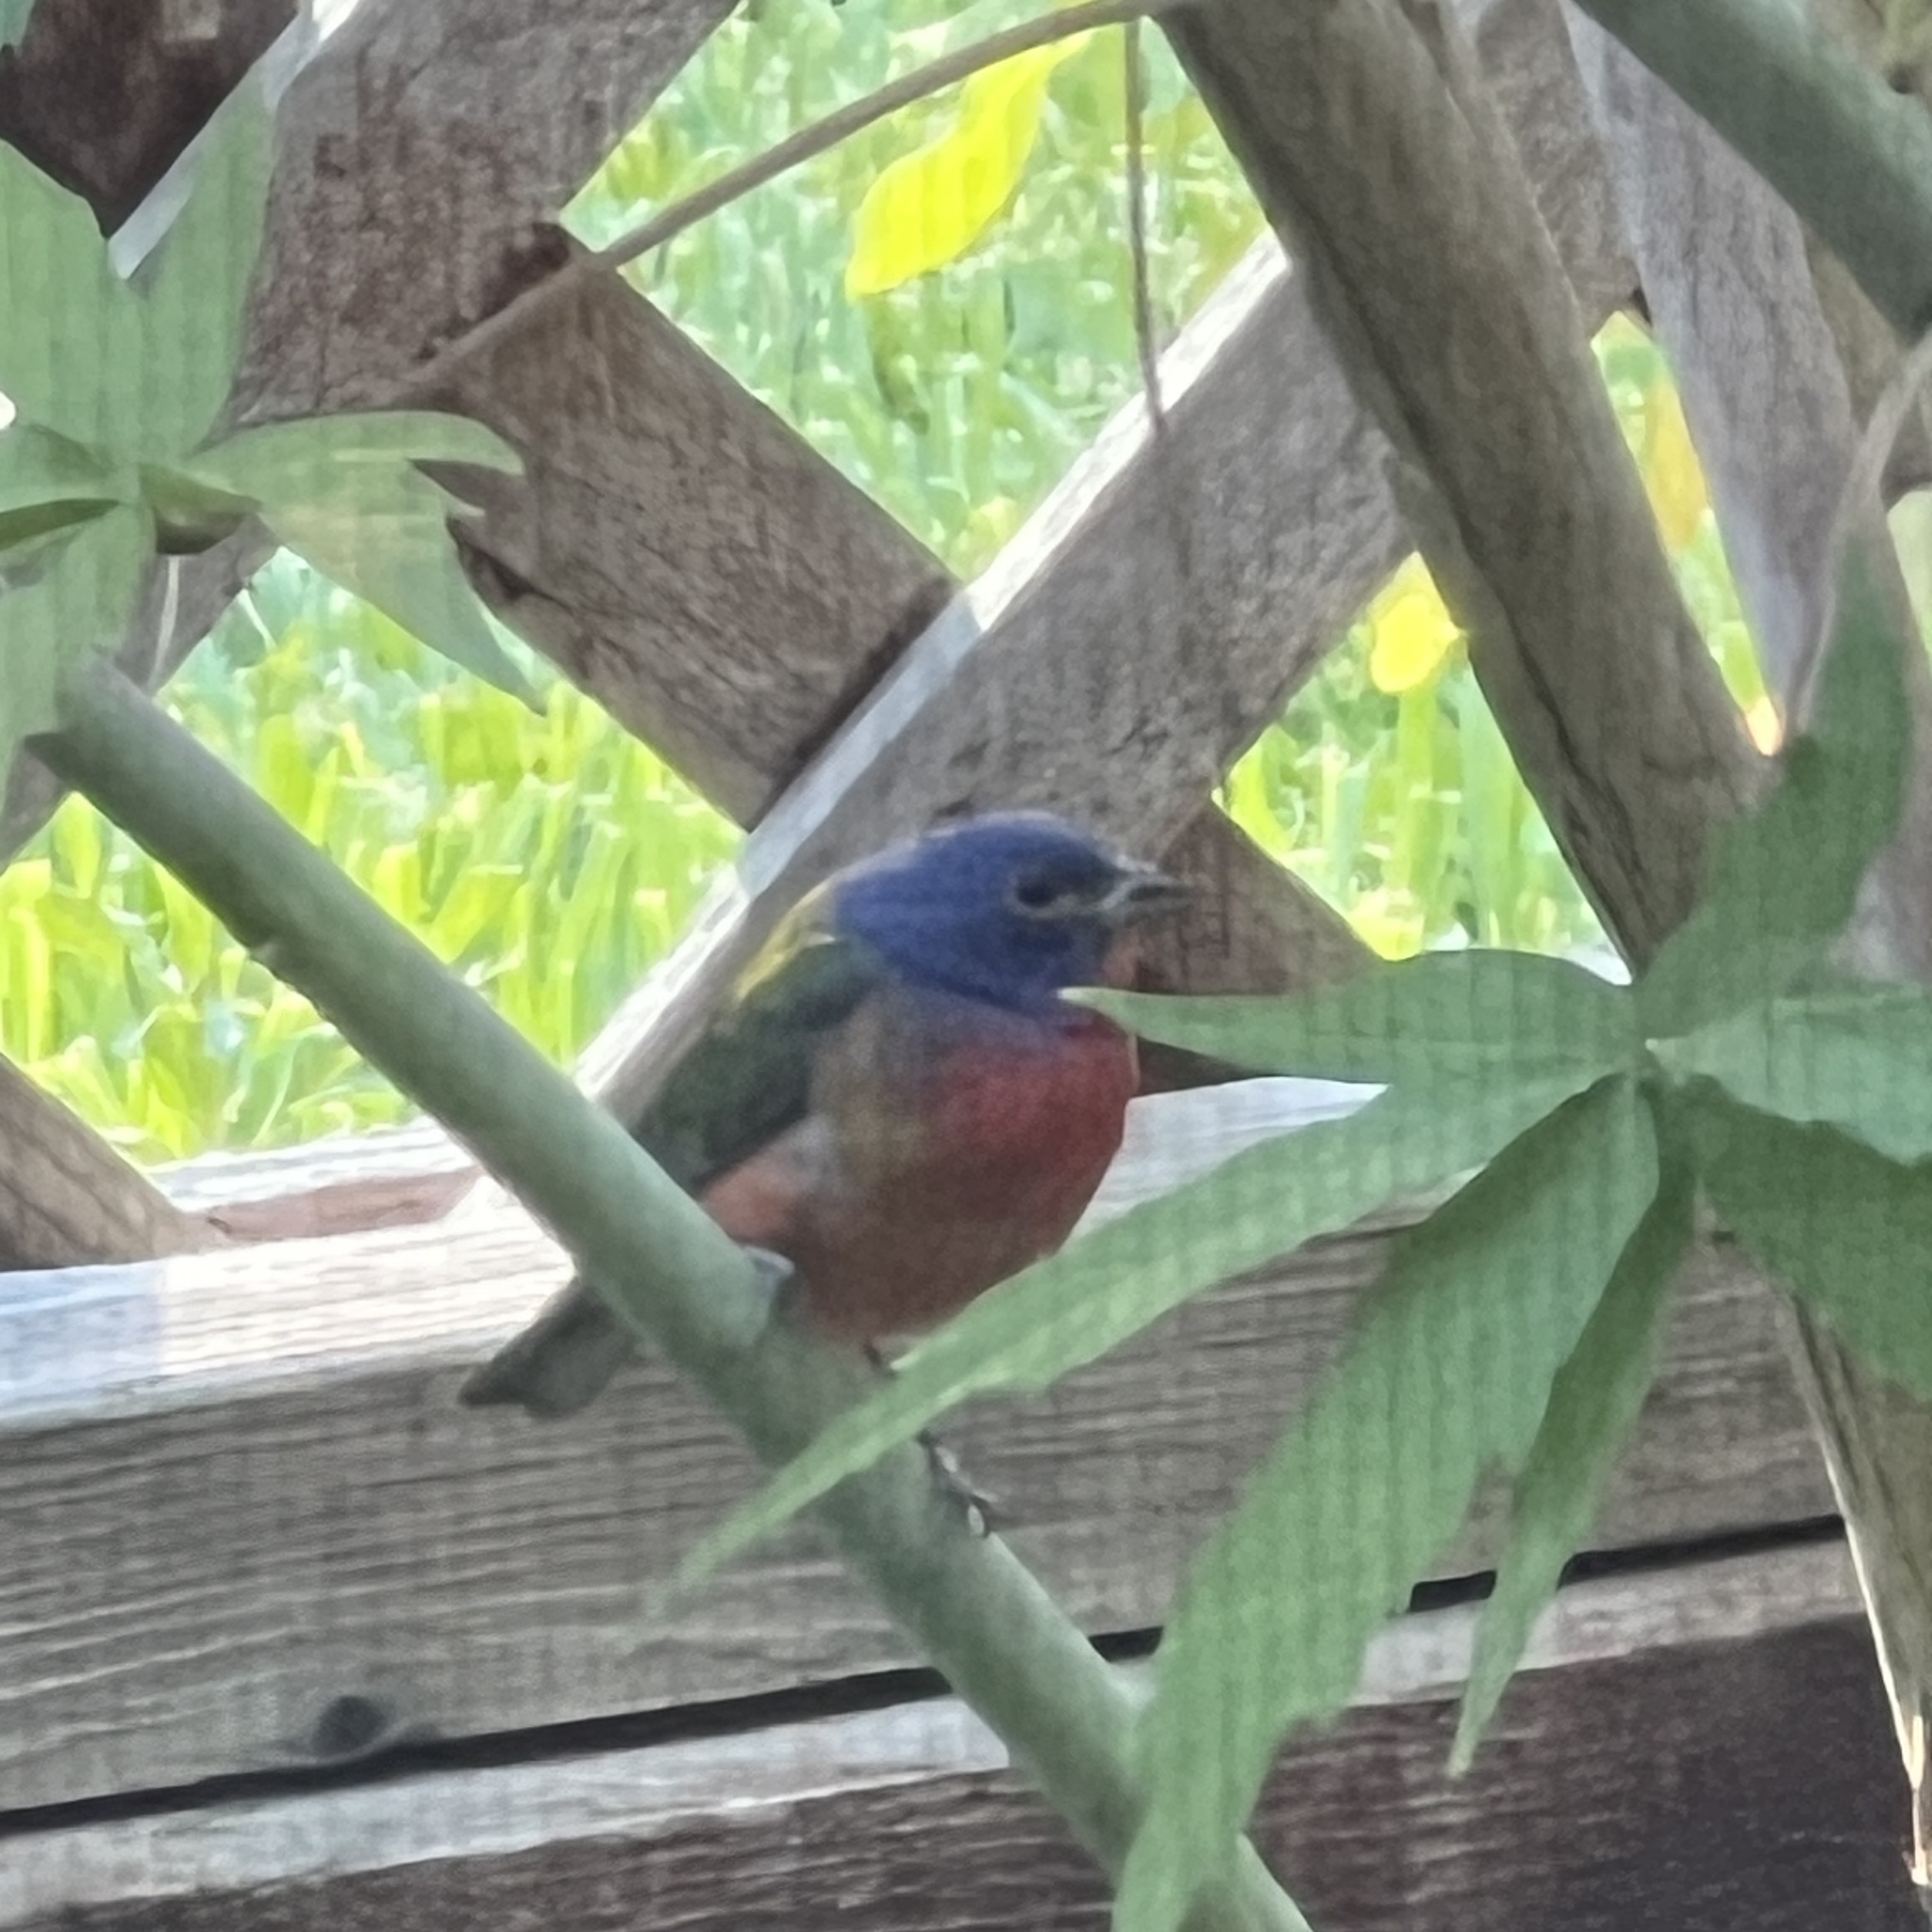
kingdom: Animalia
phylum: Chordata
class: Aves
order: Passeriformes
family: Cardinalidae
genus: Passerina
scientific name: Passerina ciris
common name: Painted bunting
